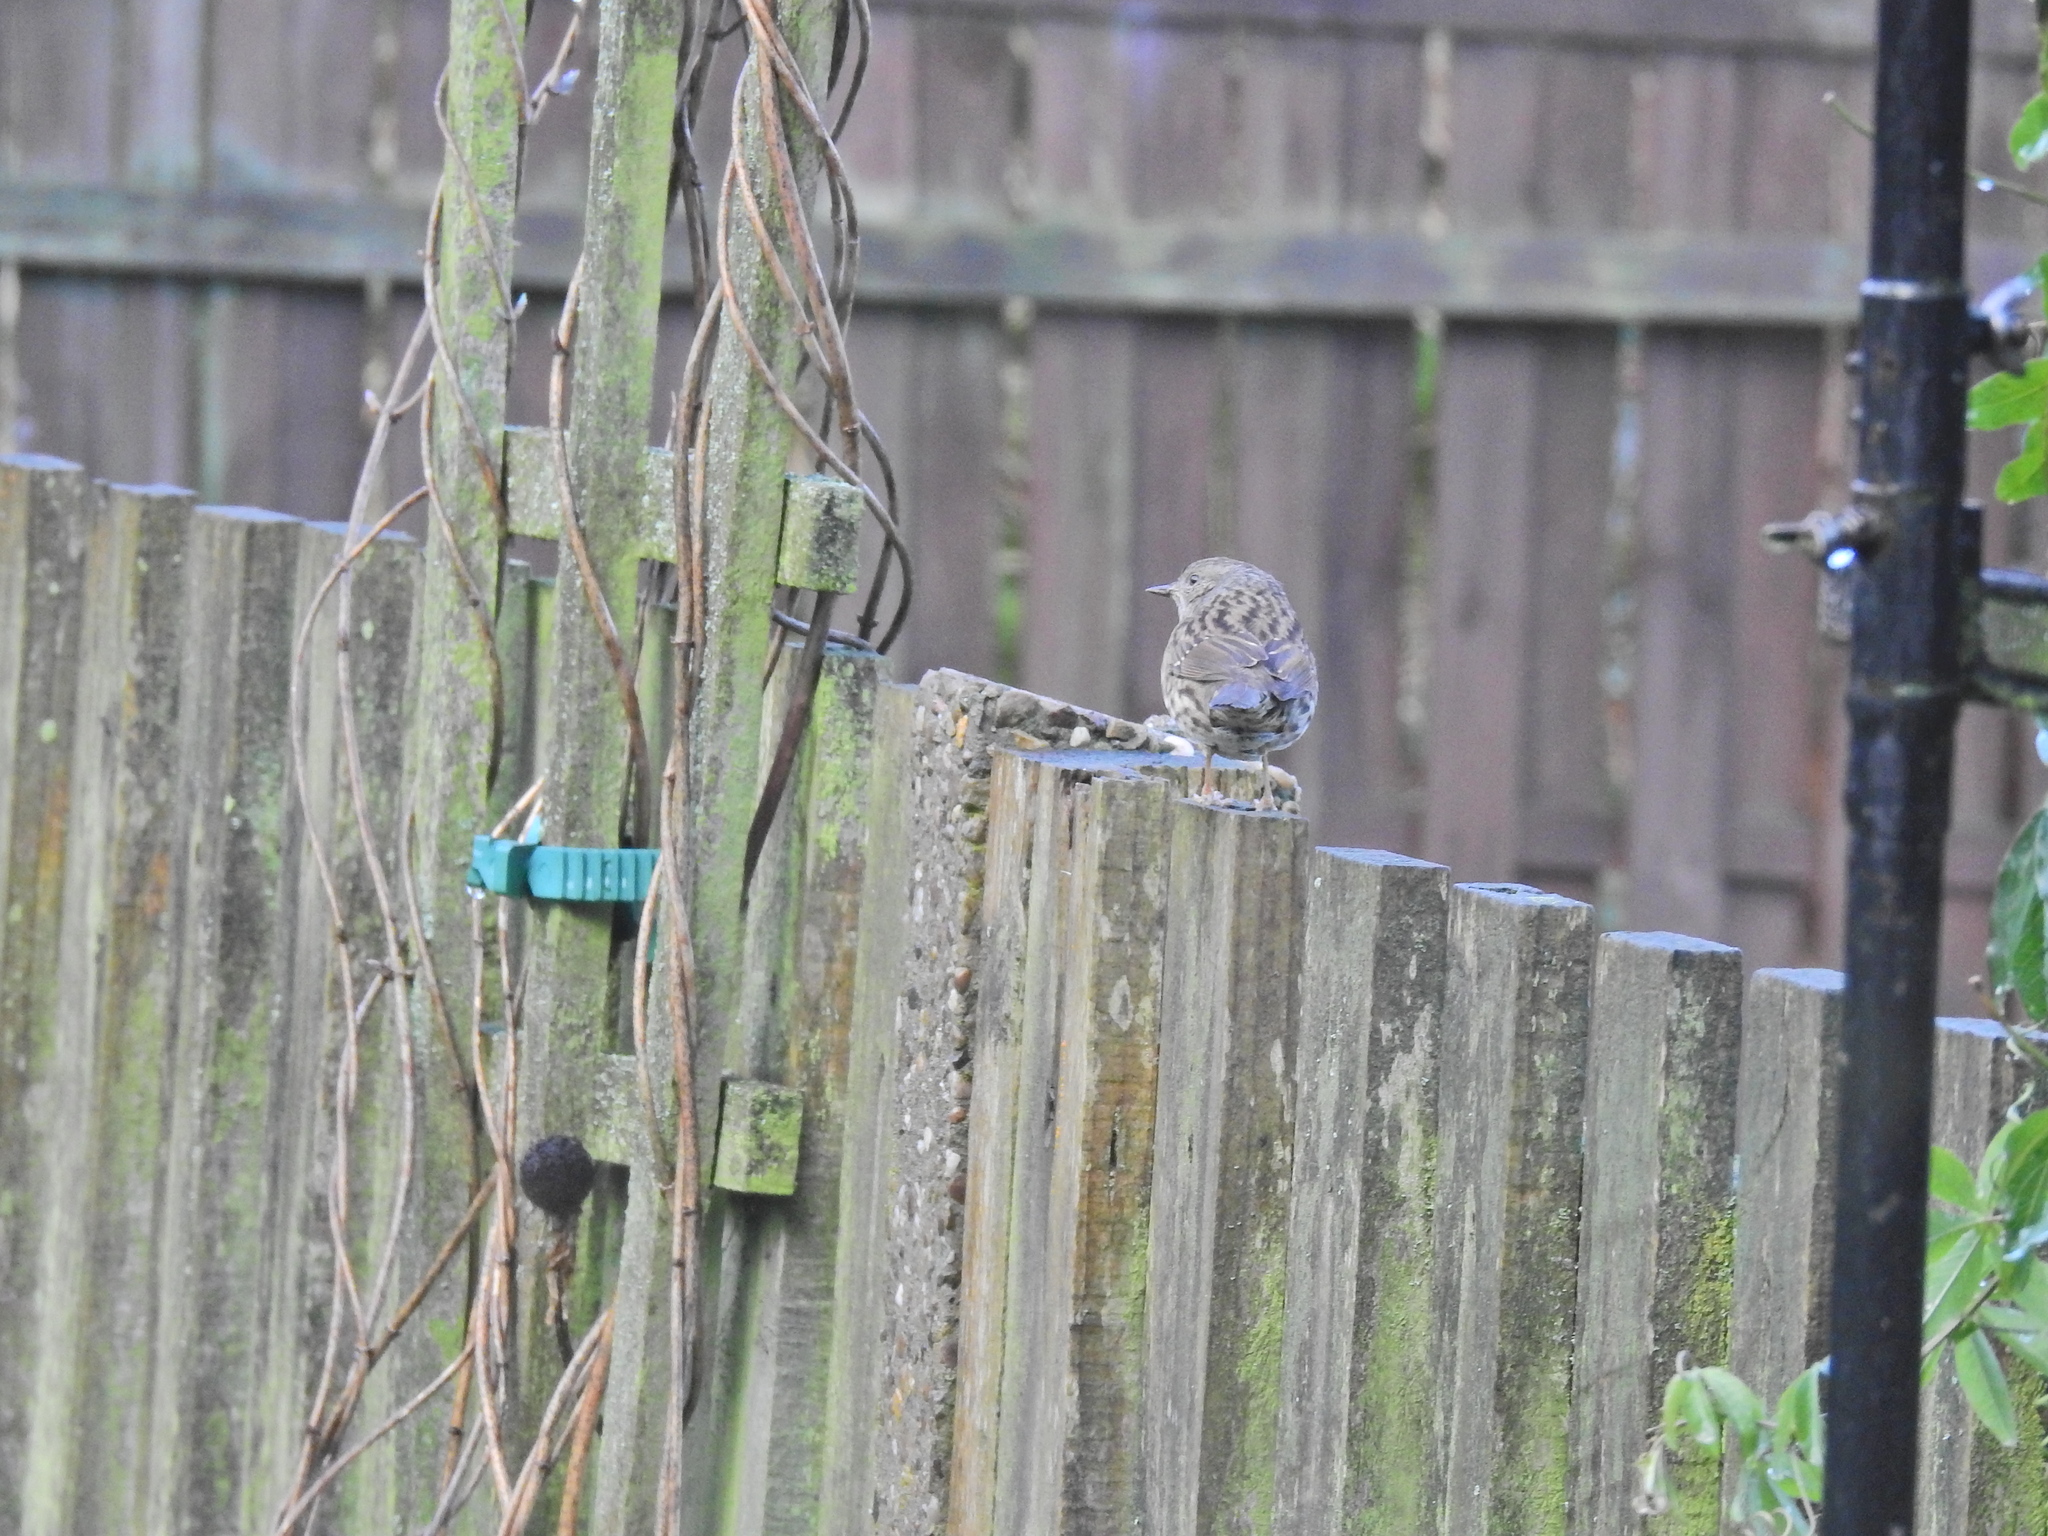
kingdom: Animalia
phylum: Chordata
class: Aves
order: Passeriformes
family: Prunellidae
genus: Prunella
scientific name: Prunella modularis
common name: Dunnock
